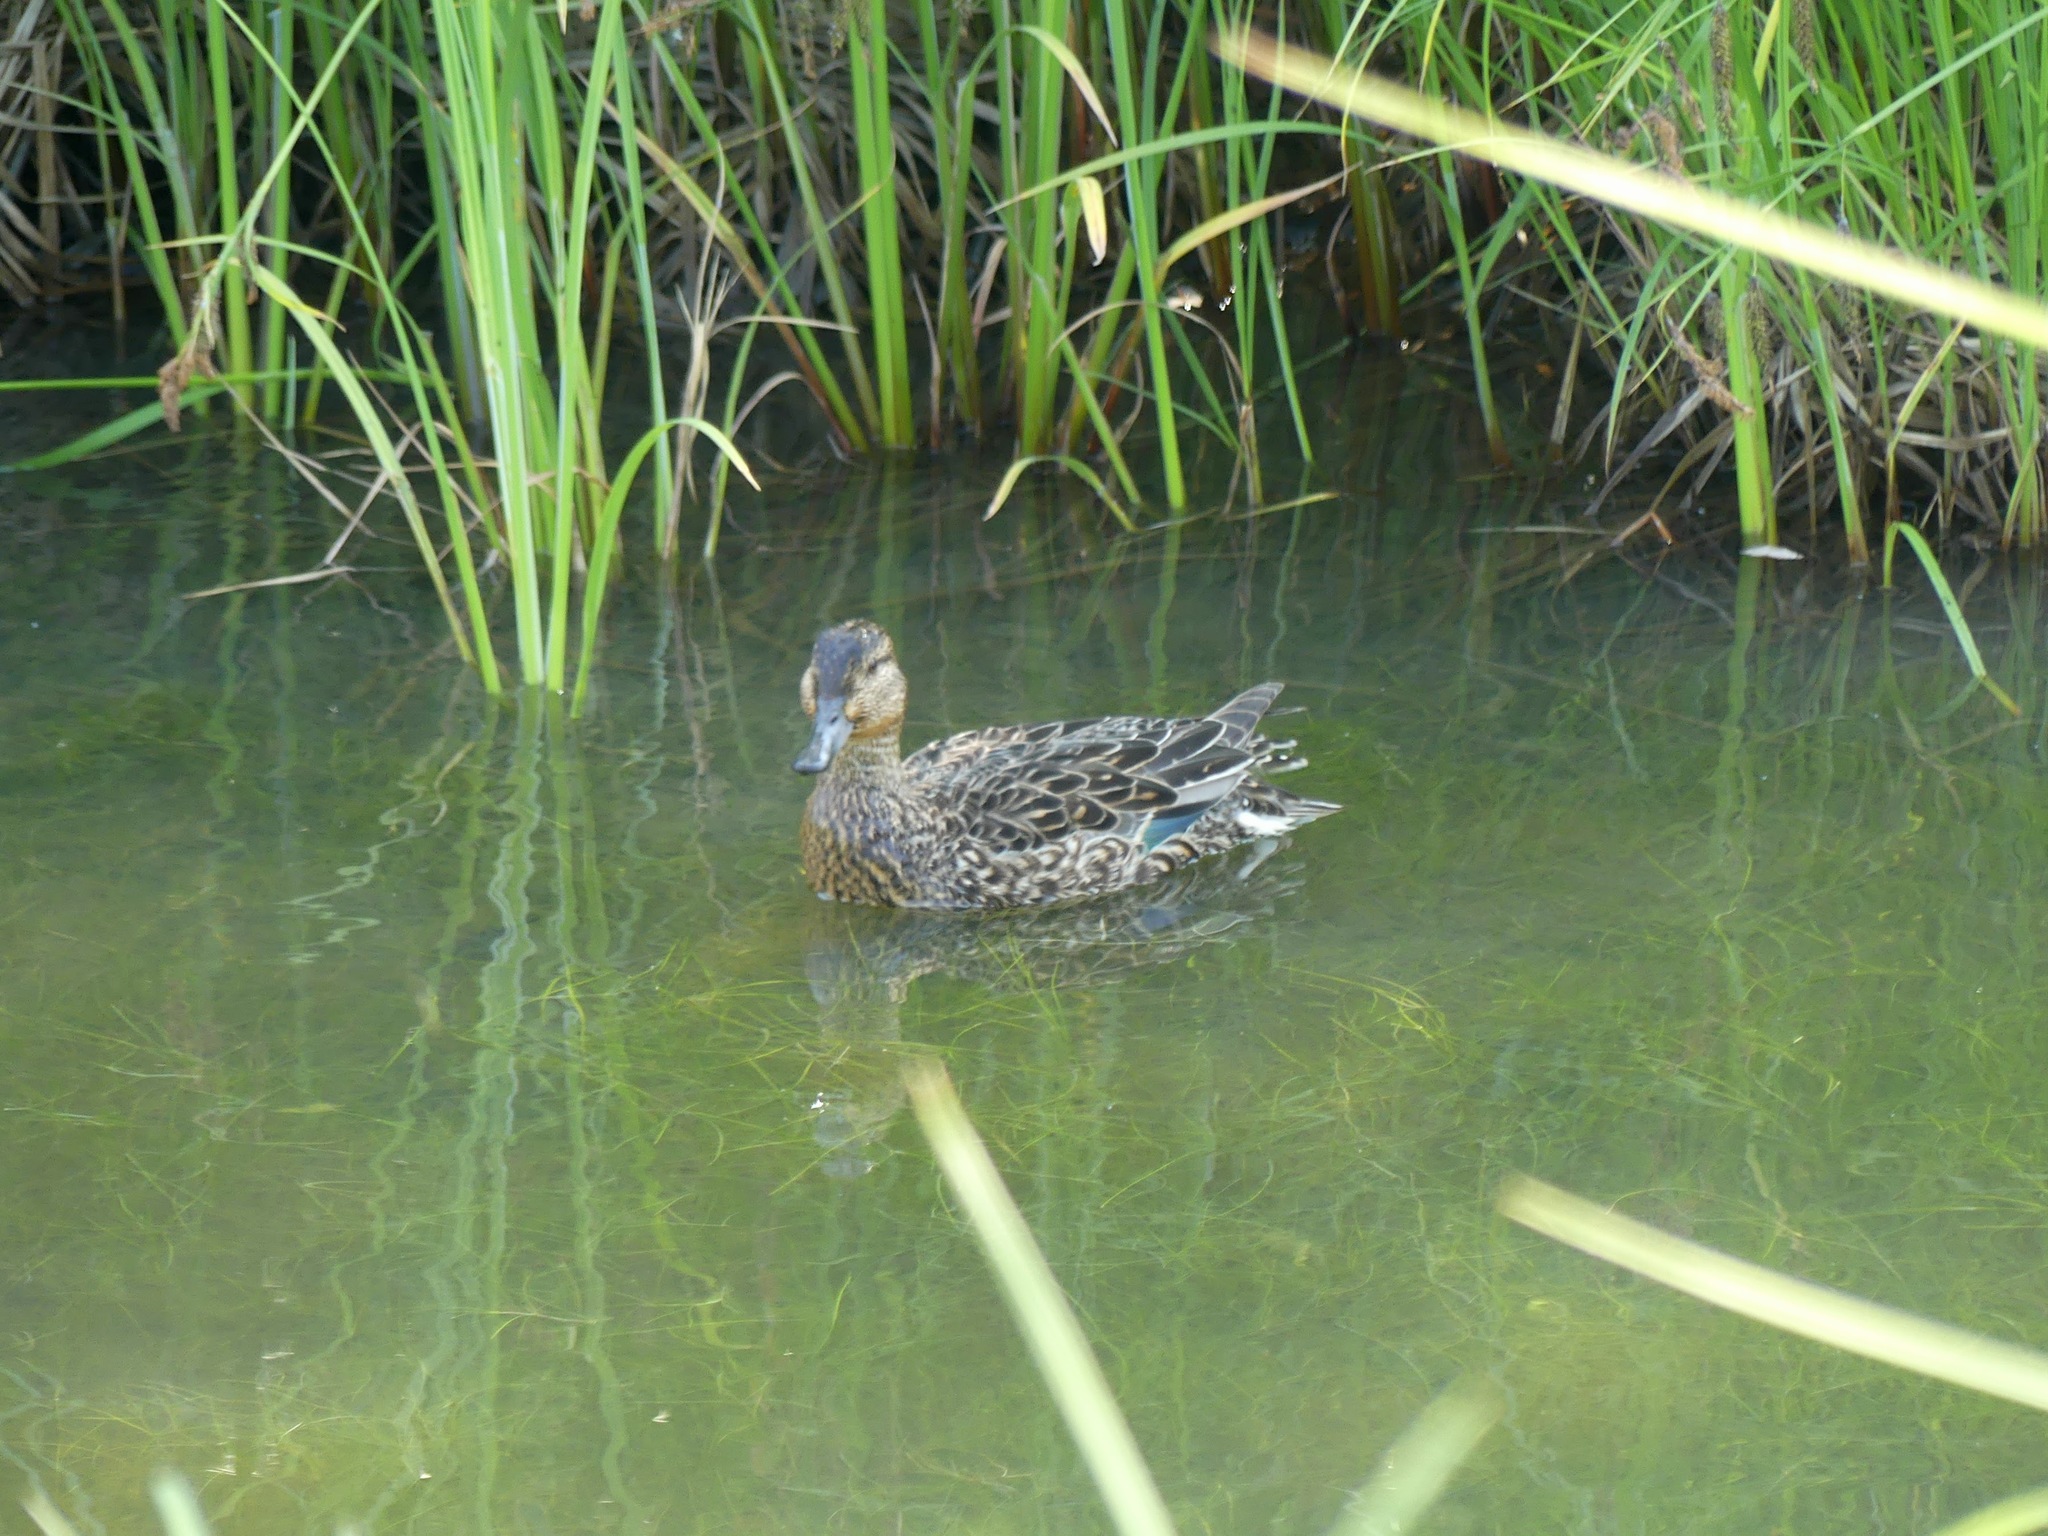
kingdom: Animalia
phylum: Chordata
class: Aves
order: Anseriformes
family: Anatidae
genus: Anas
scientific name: Anas crecca
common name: Eurasian teal
